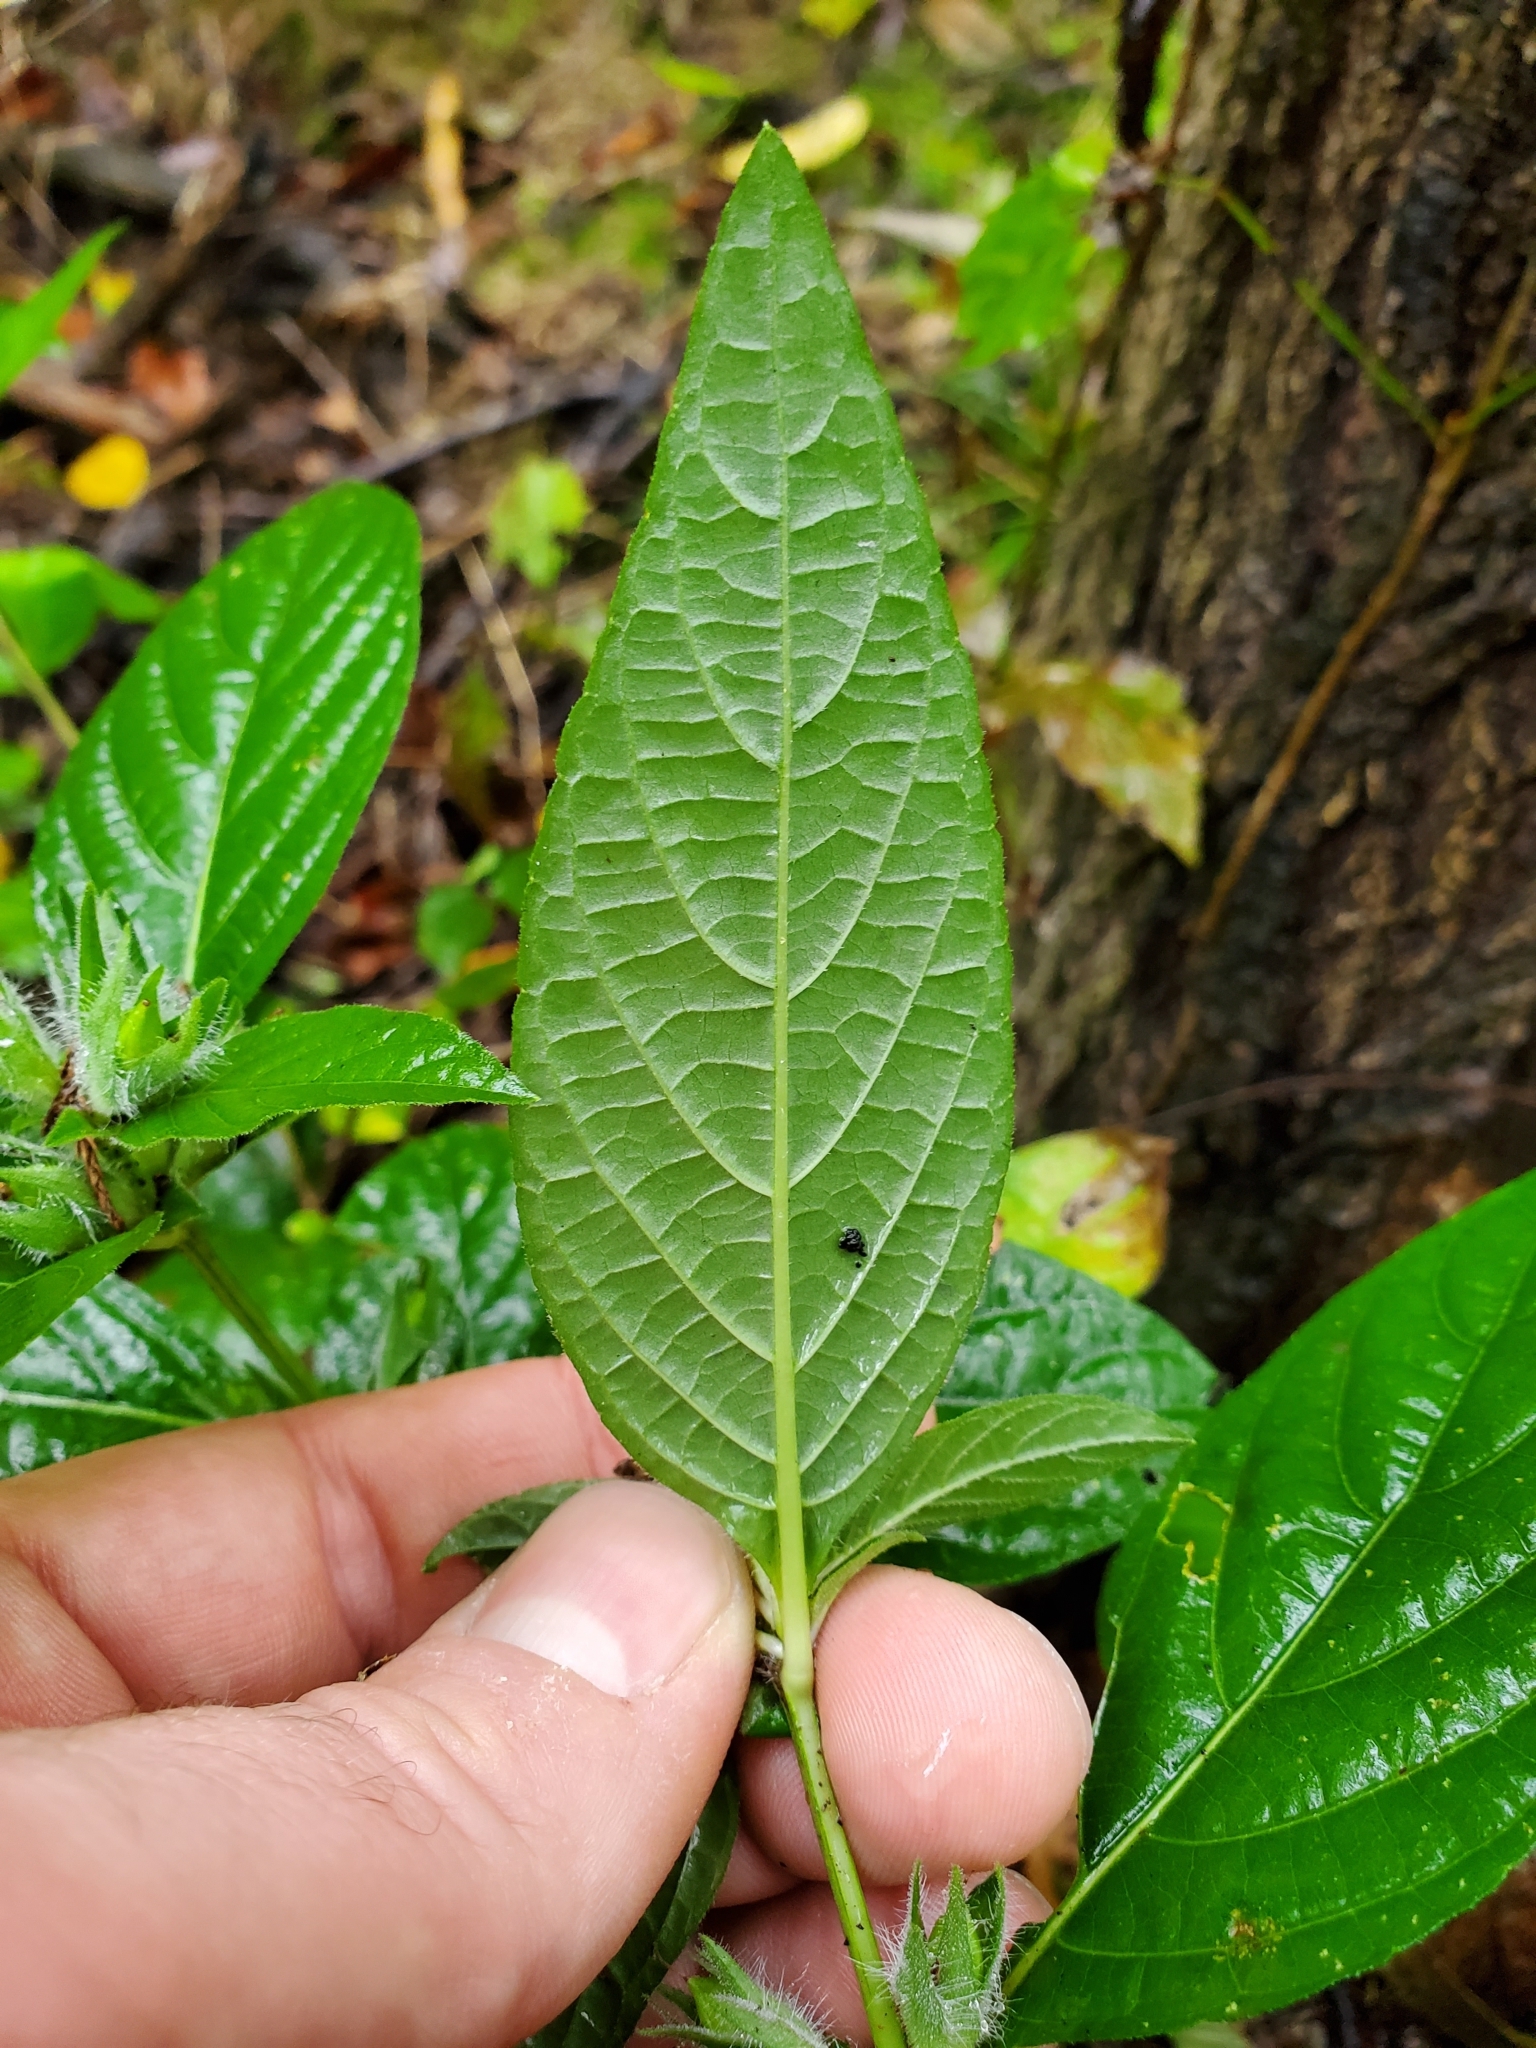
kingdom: Plantae
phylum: Tracheophyta
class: Magnoliopsida
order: Lamiales
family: Acanthaceae
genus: Ruellia
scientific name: Ruellia strepens
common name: Limestone wild petunia
